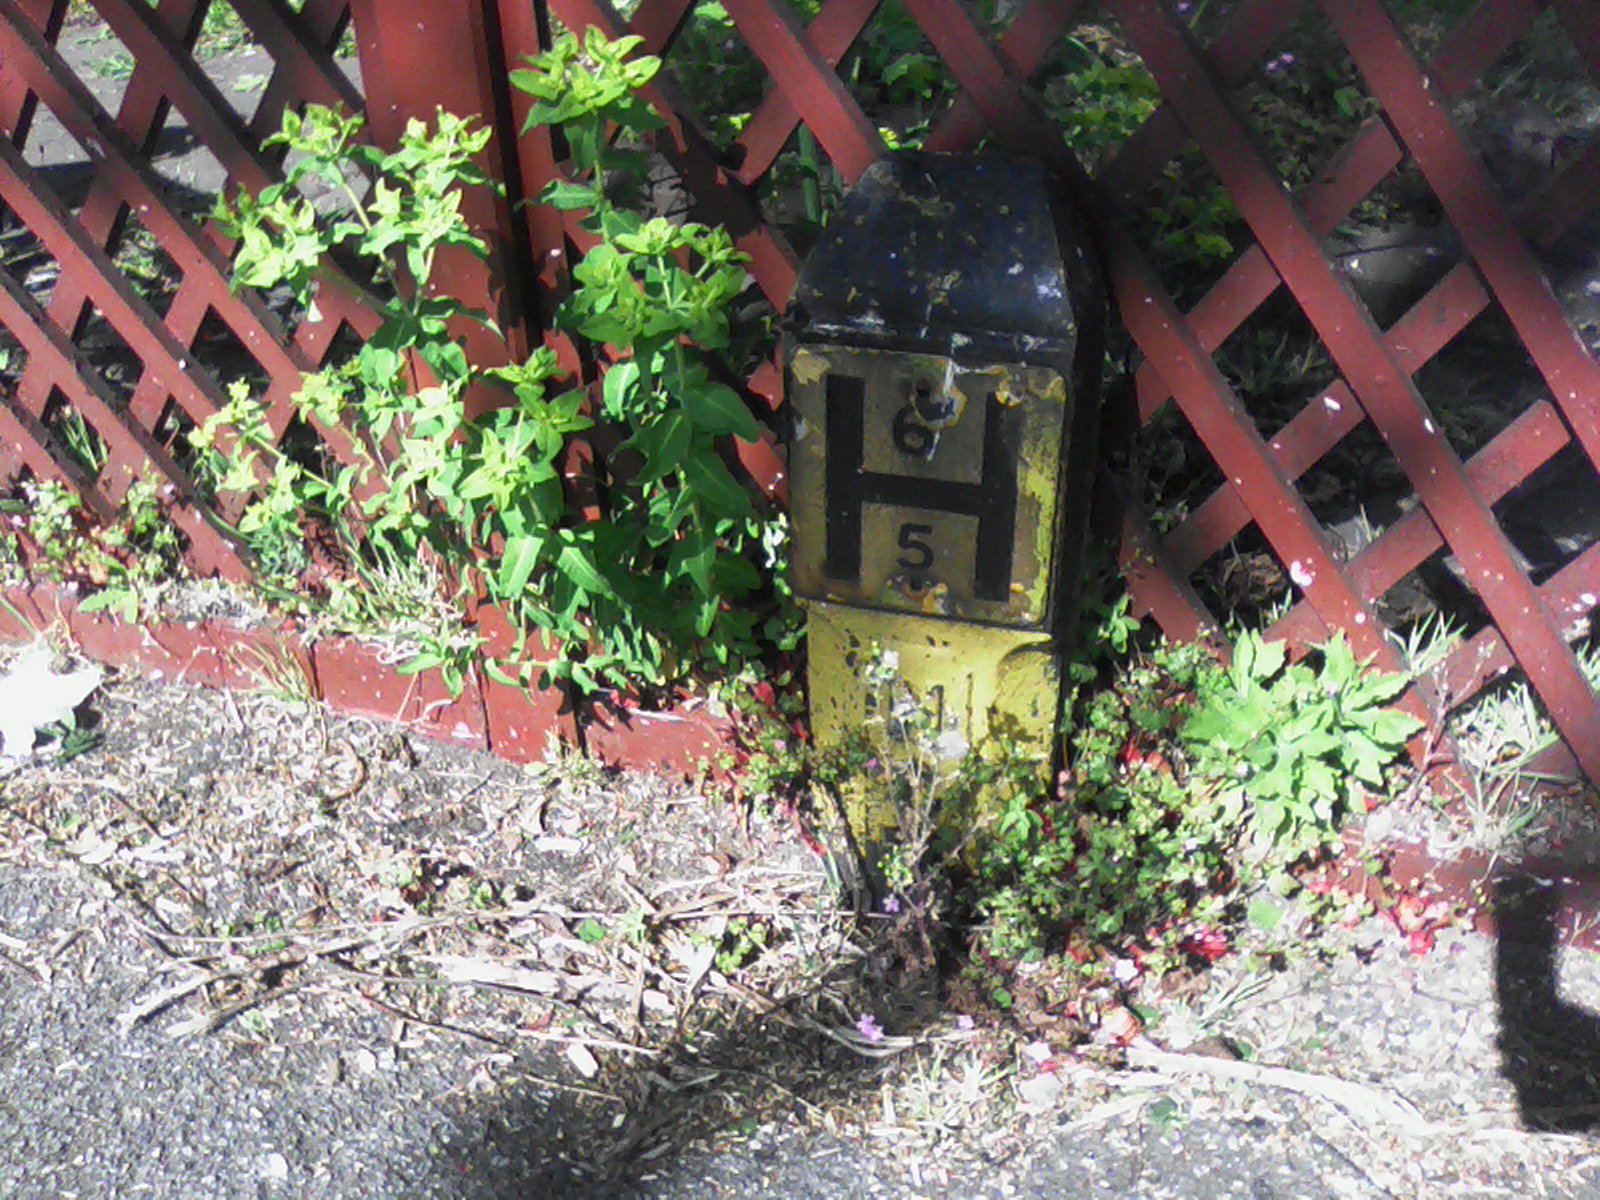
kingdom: Plantae
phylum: Tracheophyta
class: Magnoliopsida
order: Malpighiales
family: Euphorbiaceae
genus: Euphorbia
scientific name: Euphorbia oblongata
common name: Balkan spurge
